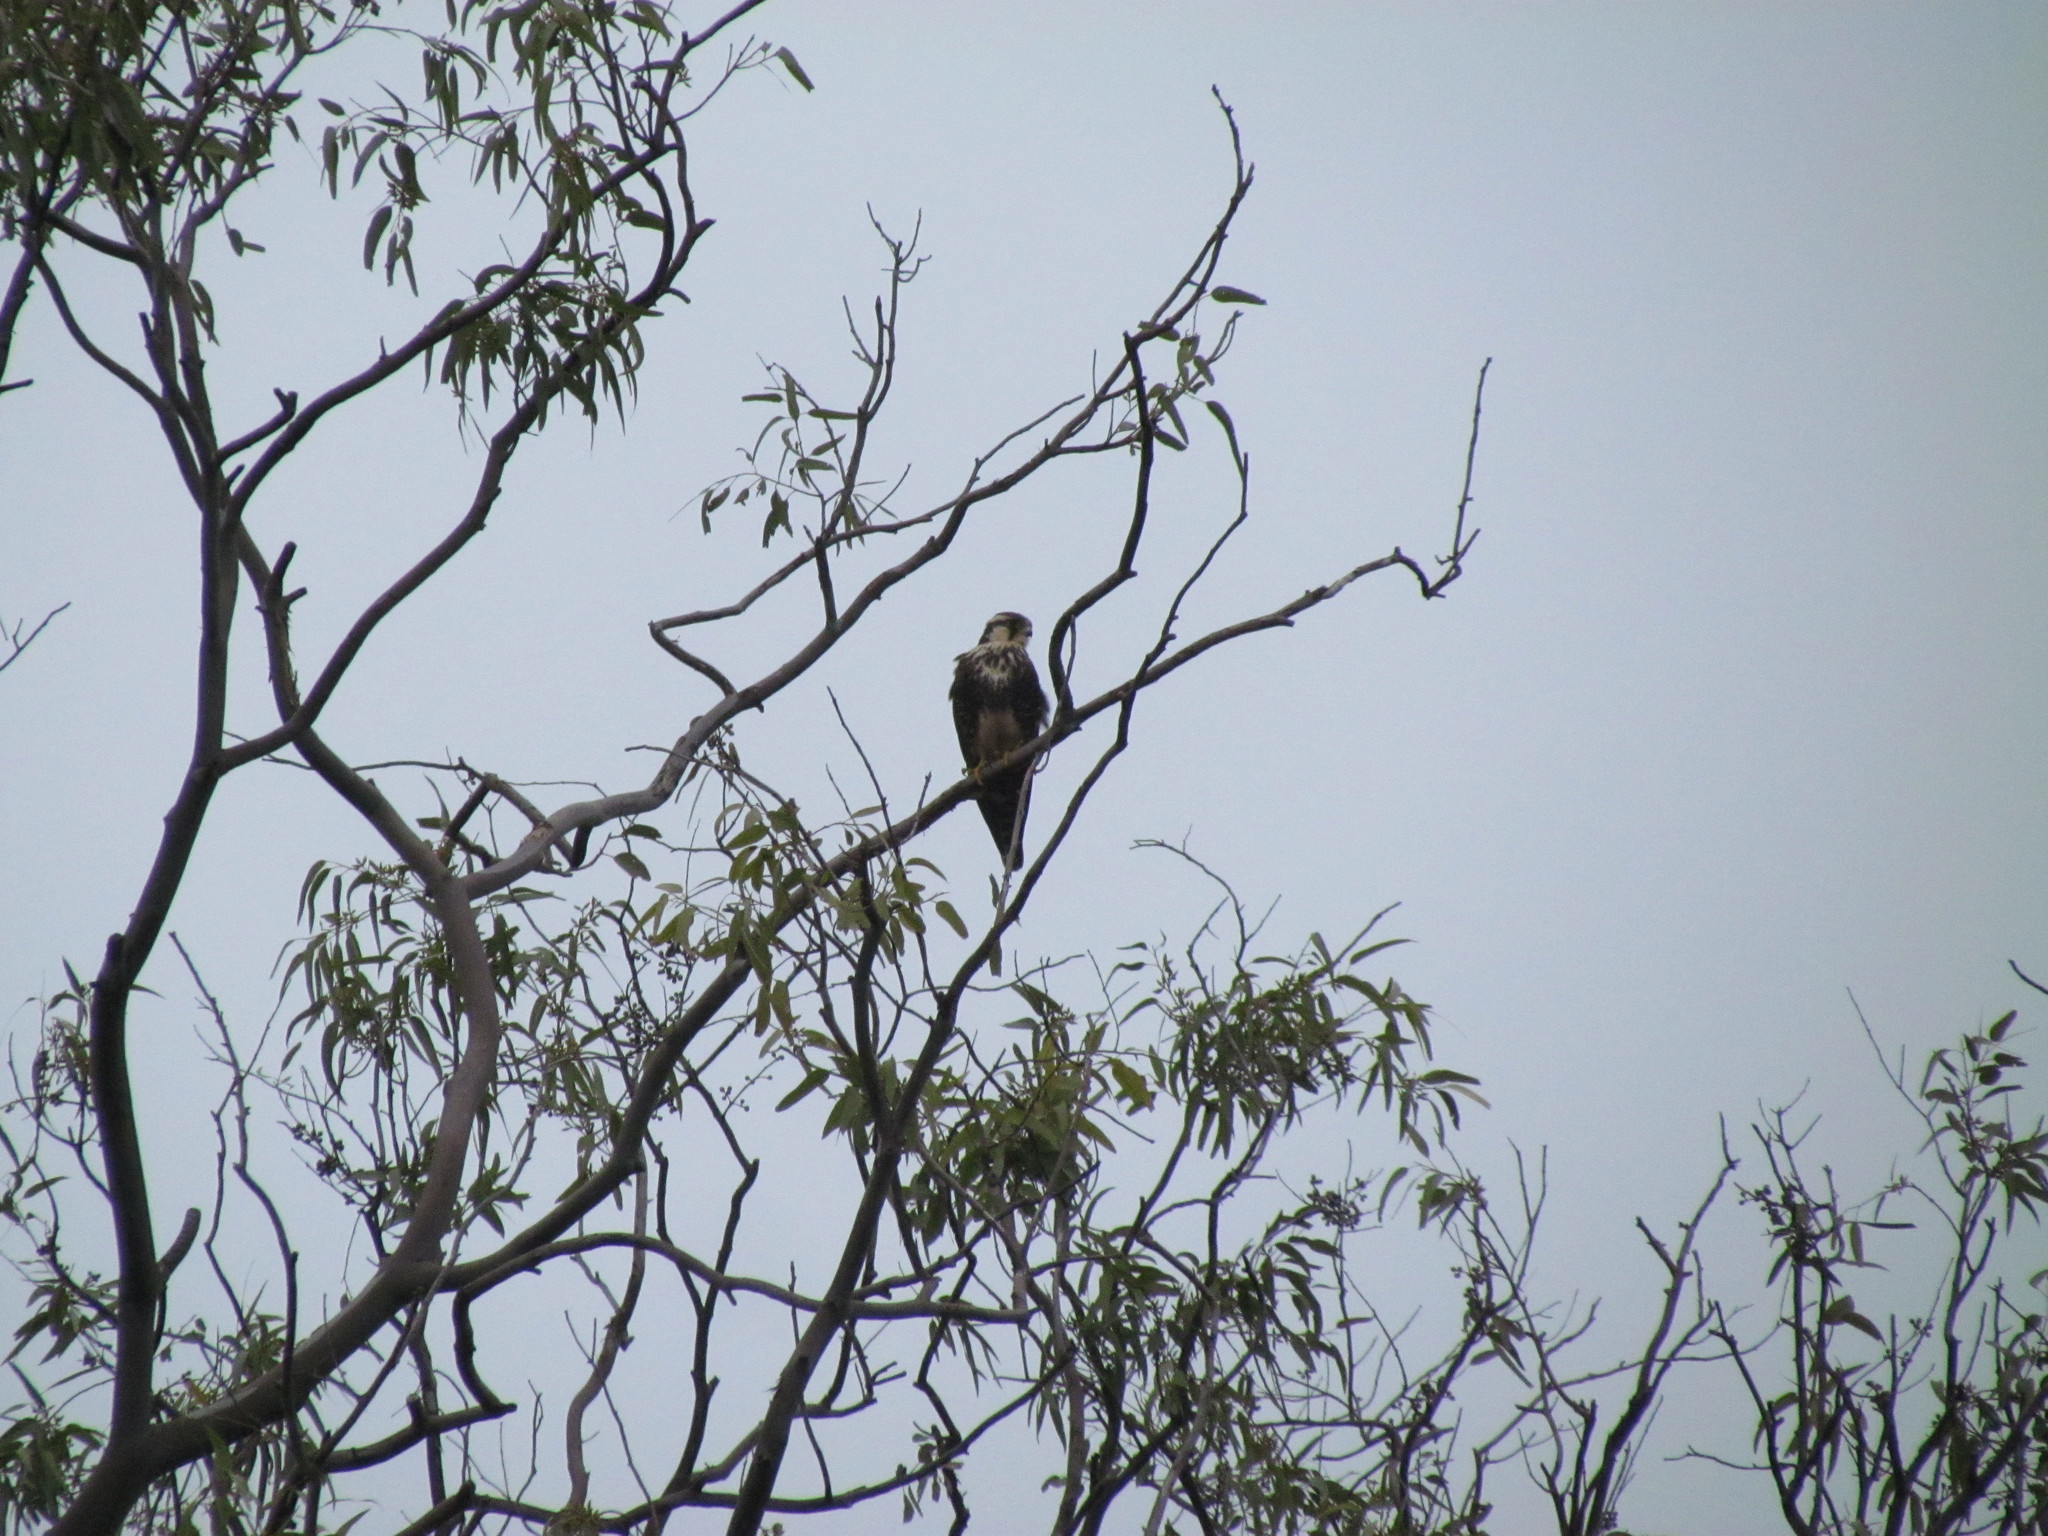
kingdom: Animalia
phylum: Chordata
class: Aves
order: Falconiformes
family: Falconidae
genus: Falco
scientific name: Falco femoralis
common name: Aplomado falcon
